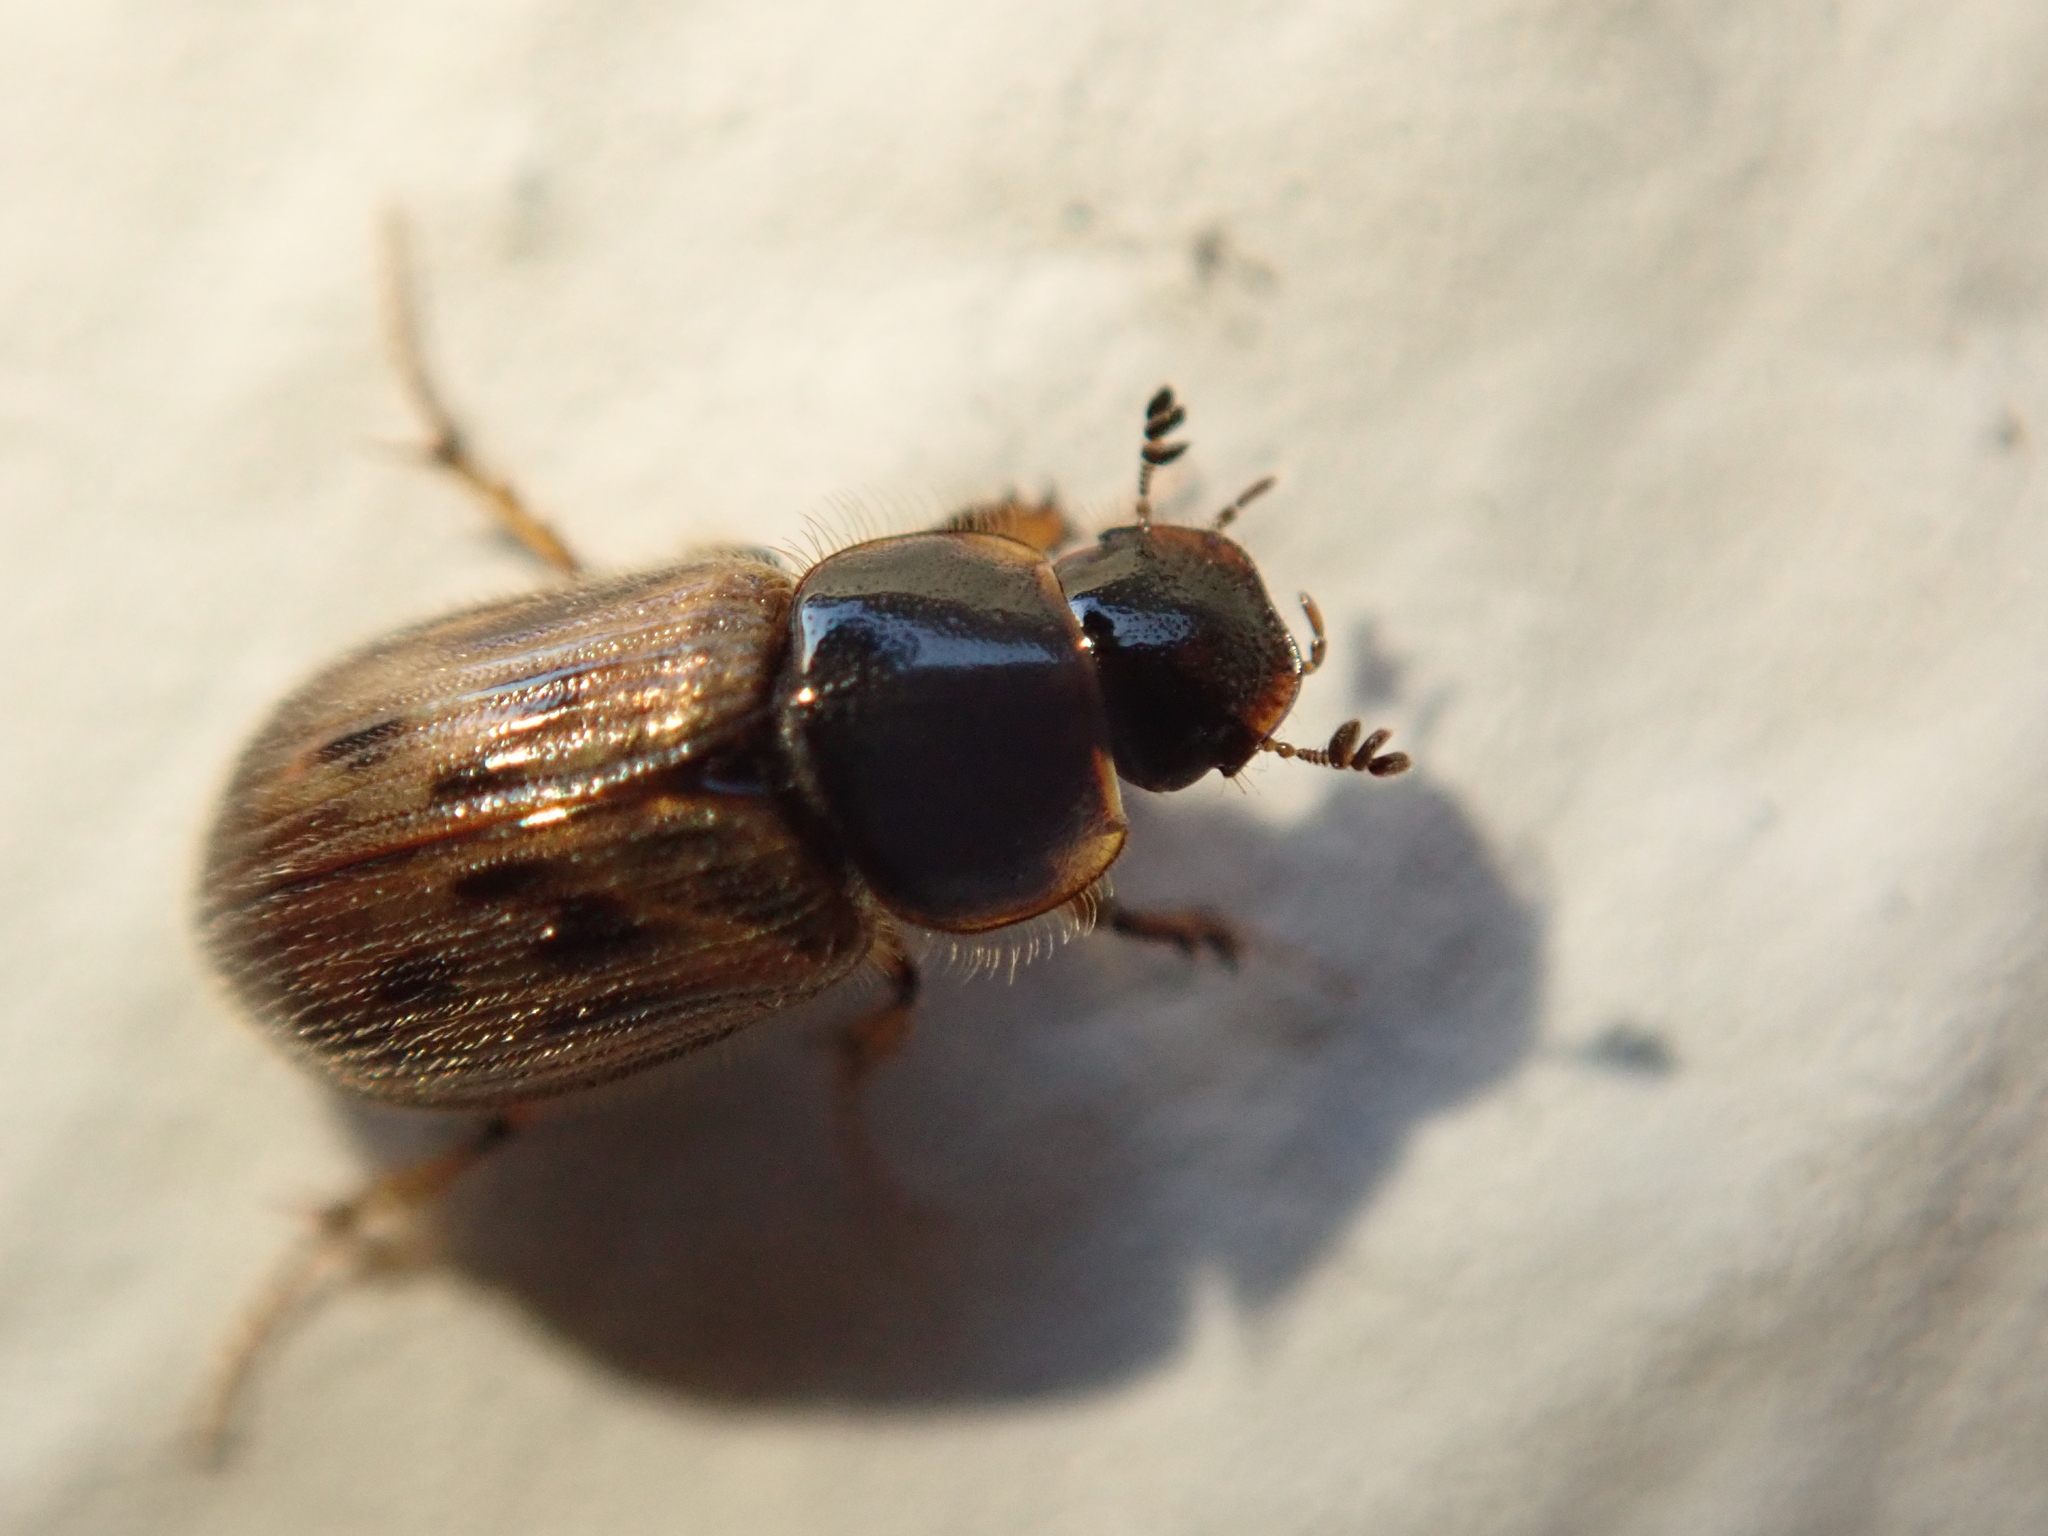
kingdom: Animalia
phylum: Arthropoda
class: Insecta
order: Coleoptera
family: Scarabaeidae
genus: Nimbus
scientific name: Nimbus contaminatus
